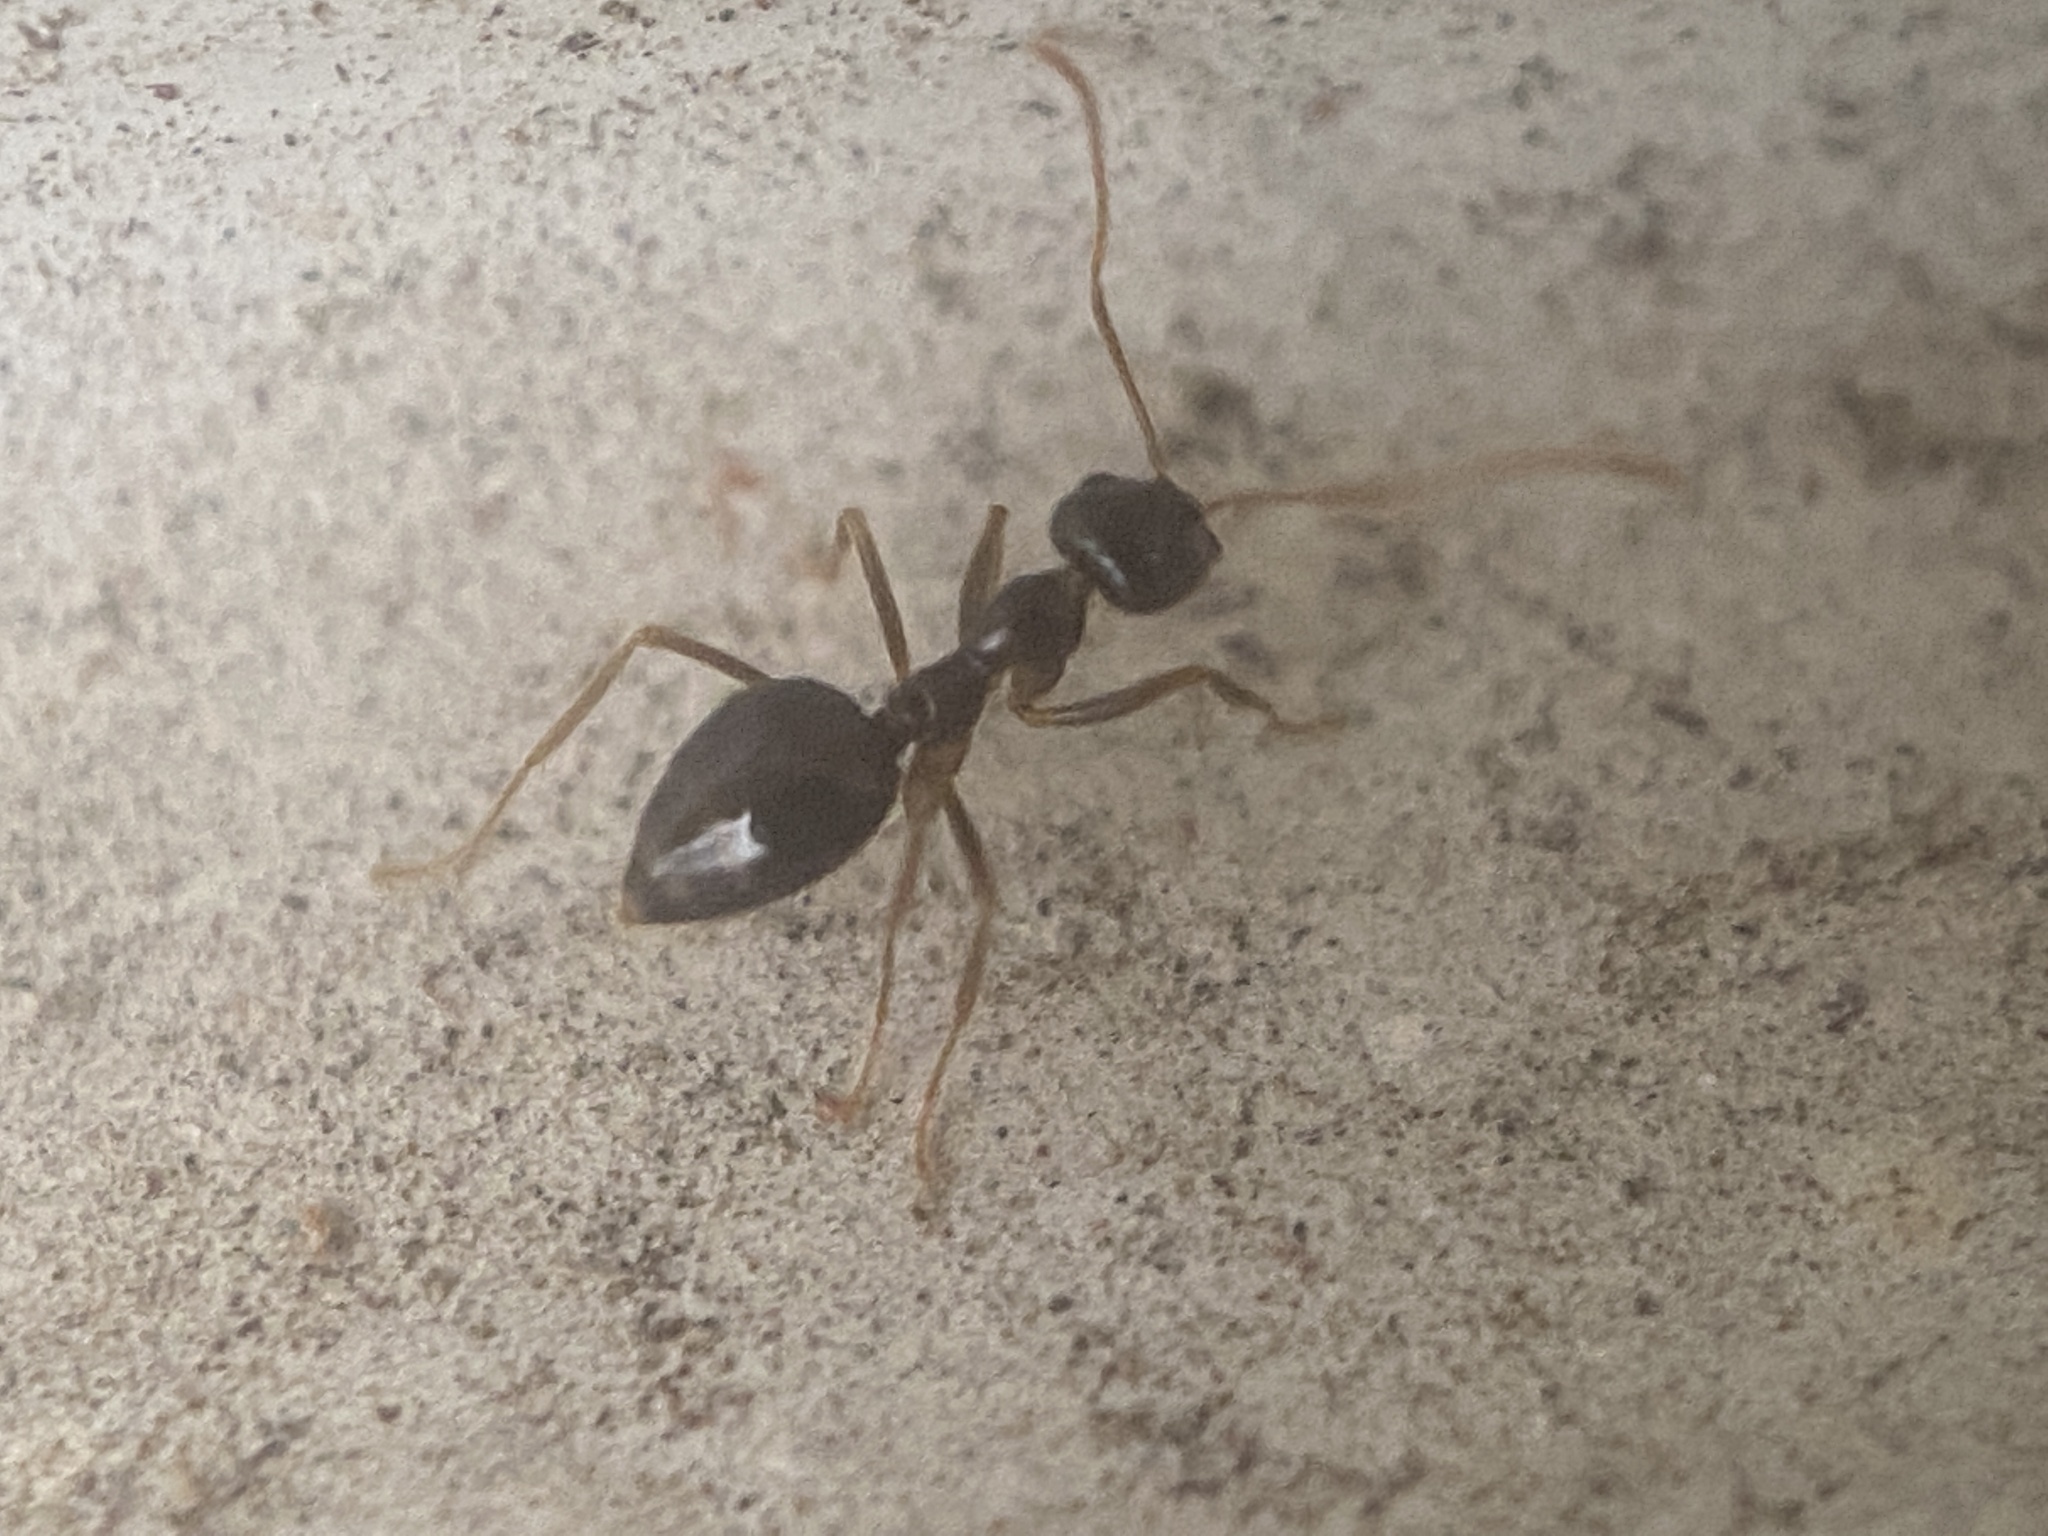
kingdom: Animalia
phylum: Arthropoda
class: Insecta
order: Hymenoptera
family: Formicidae
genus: Prenolepis
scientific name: Prenolepis imparis
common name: Small honey ant
